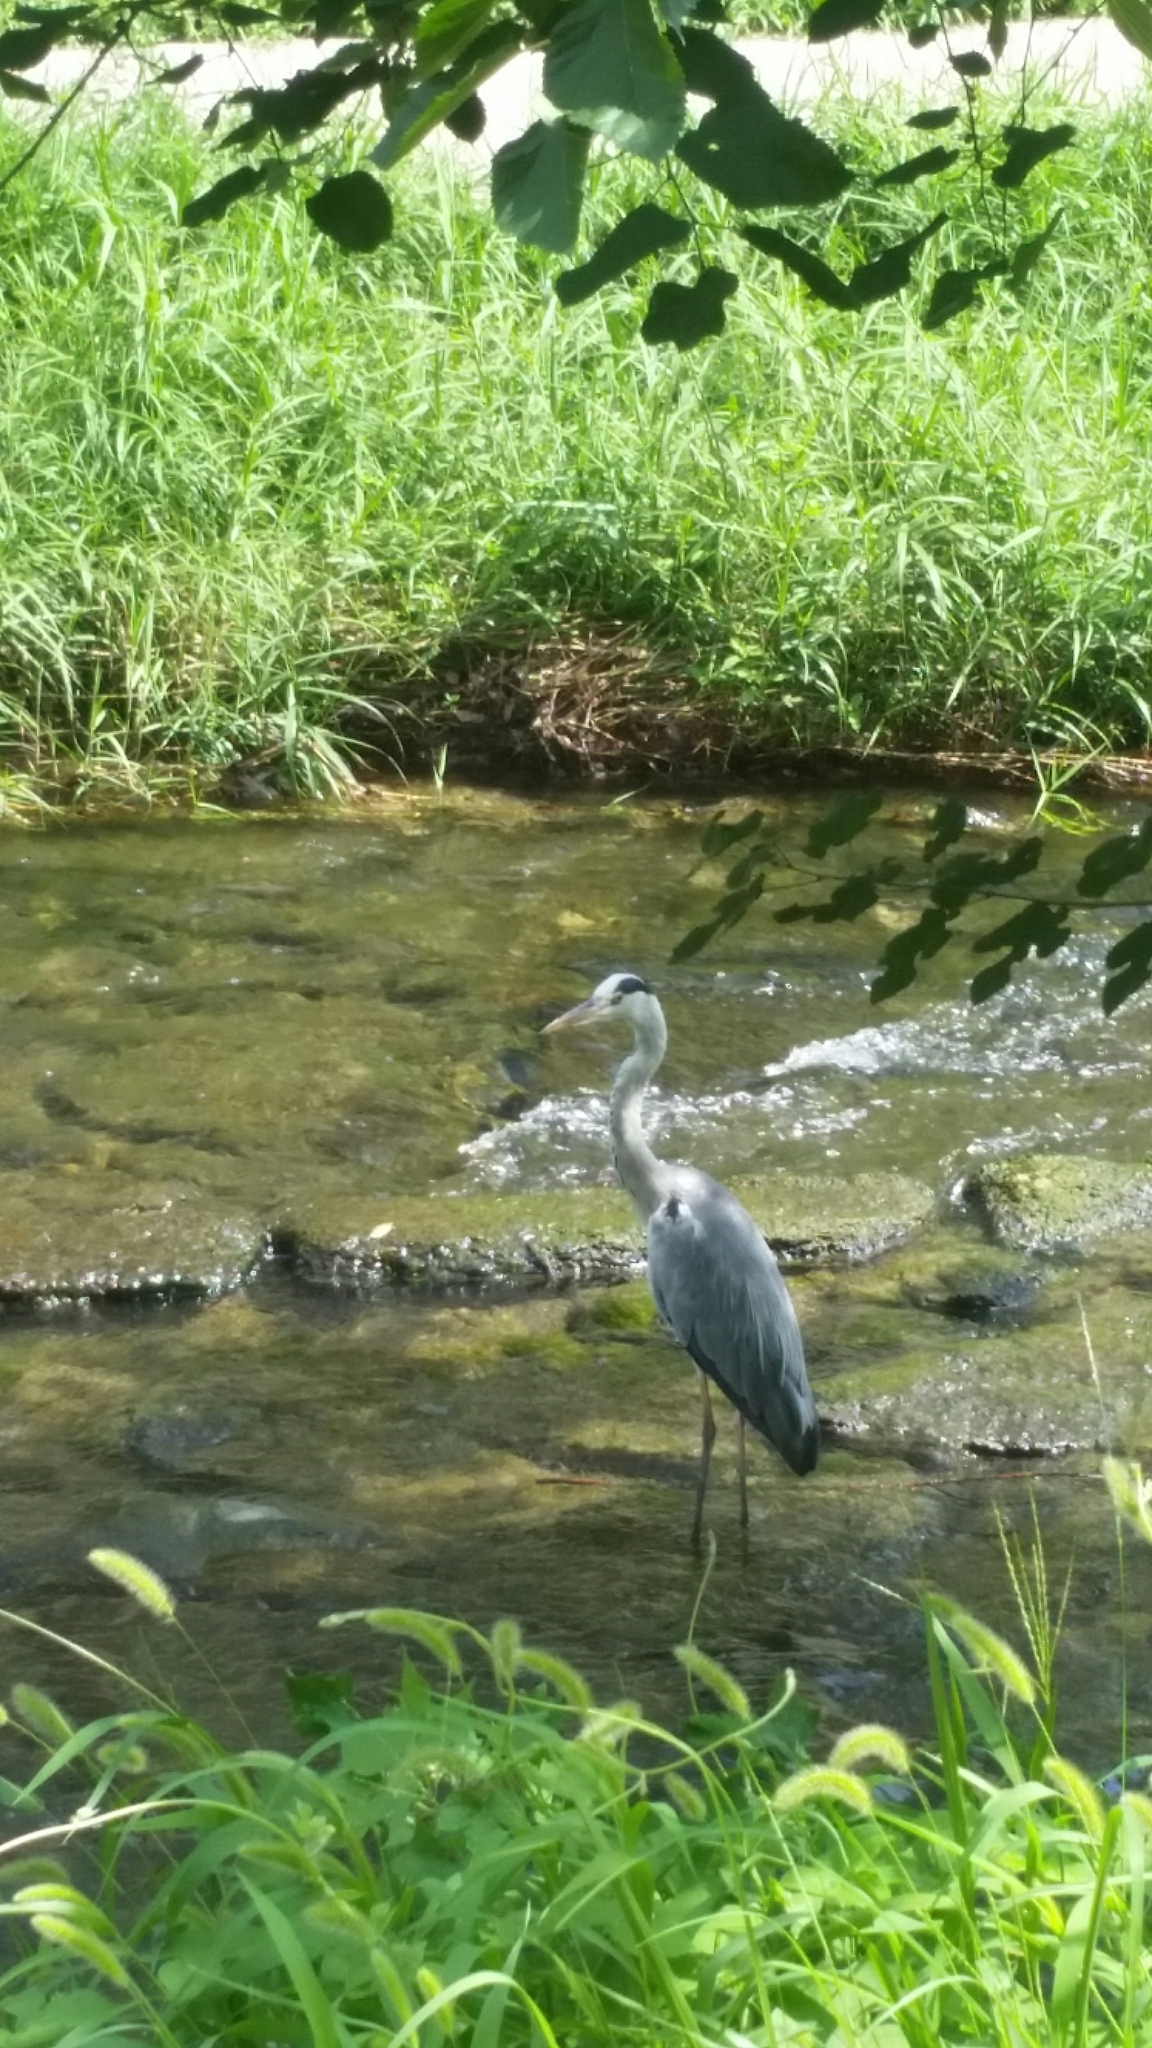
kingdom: Animalia
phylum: Chordata
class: Aves
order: Pelecaniformes
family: Ardeidae
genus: Ardea
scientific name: Ardea cinerea
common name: Grey heron
